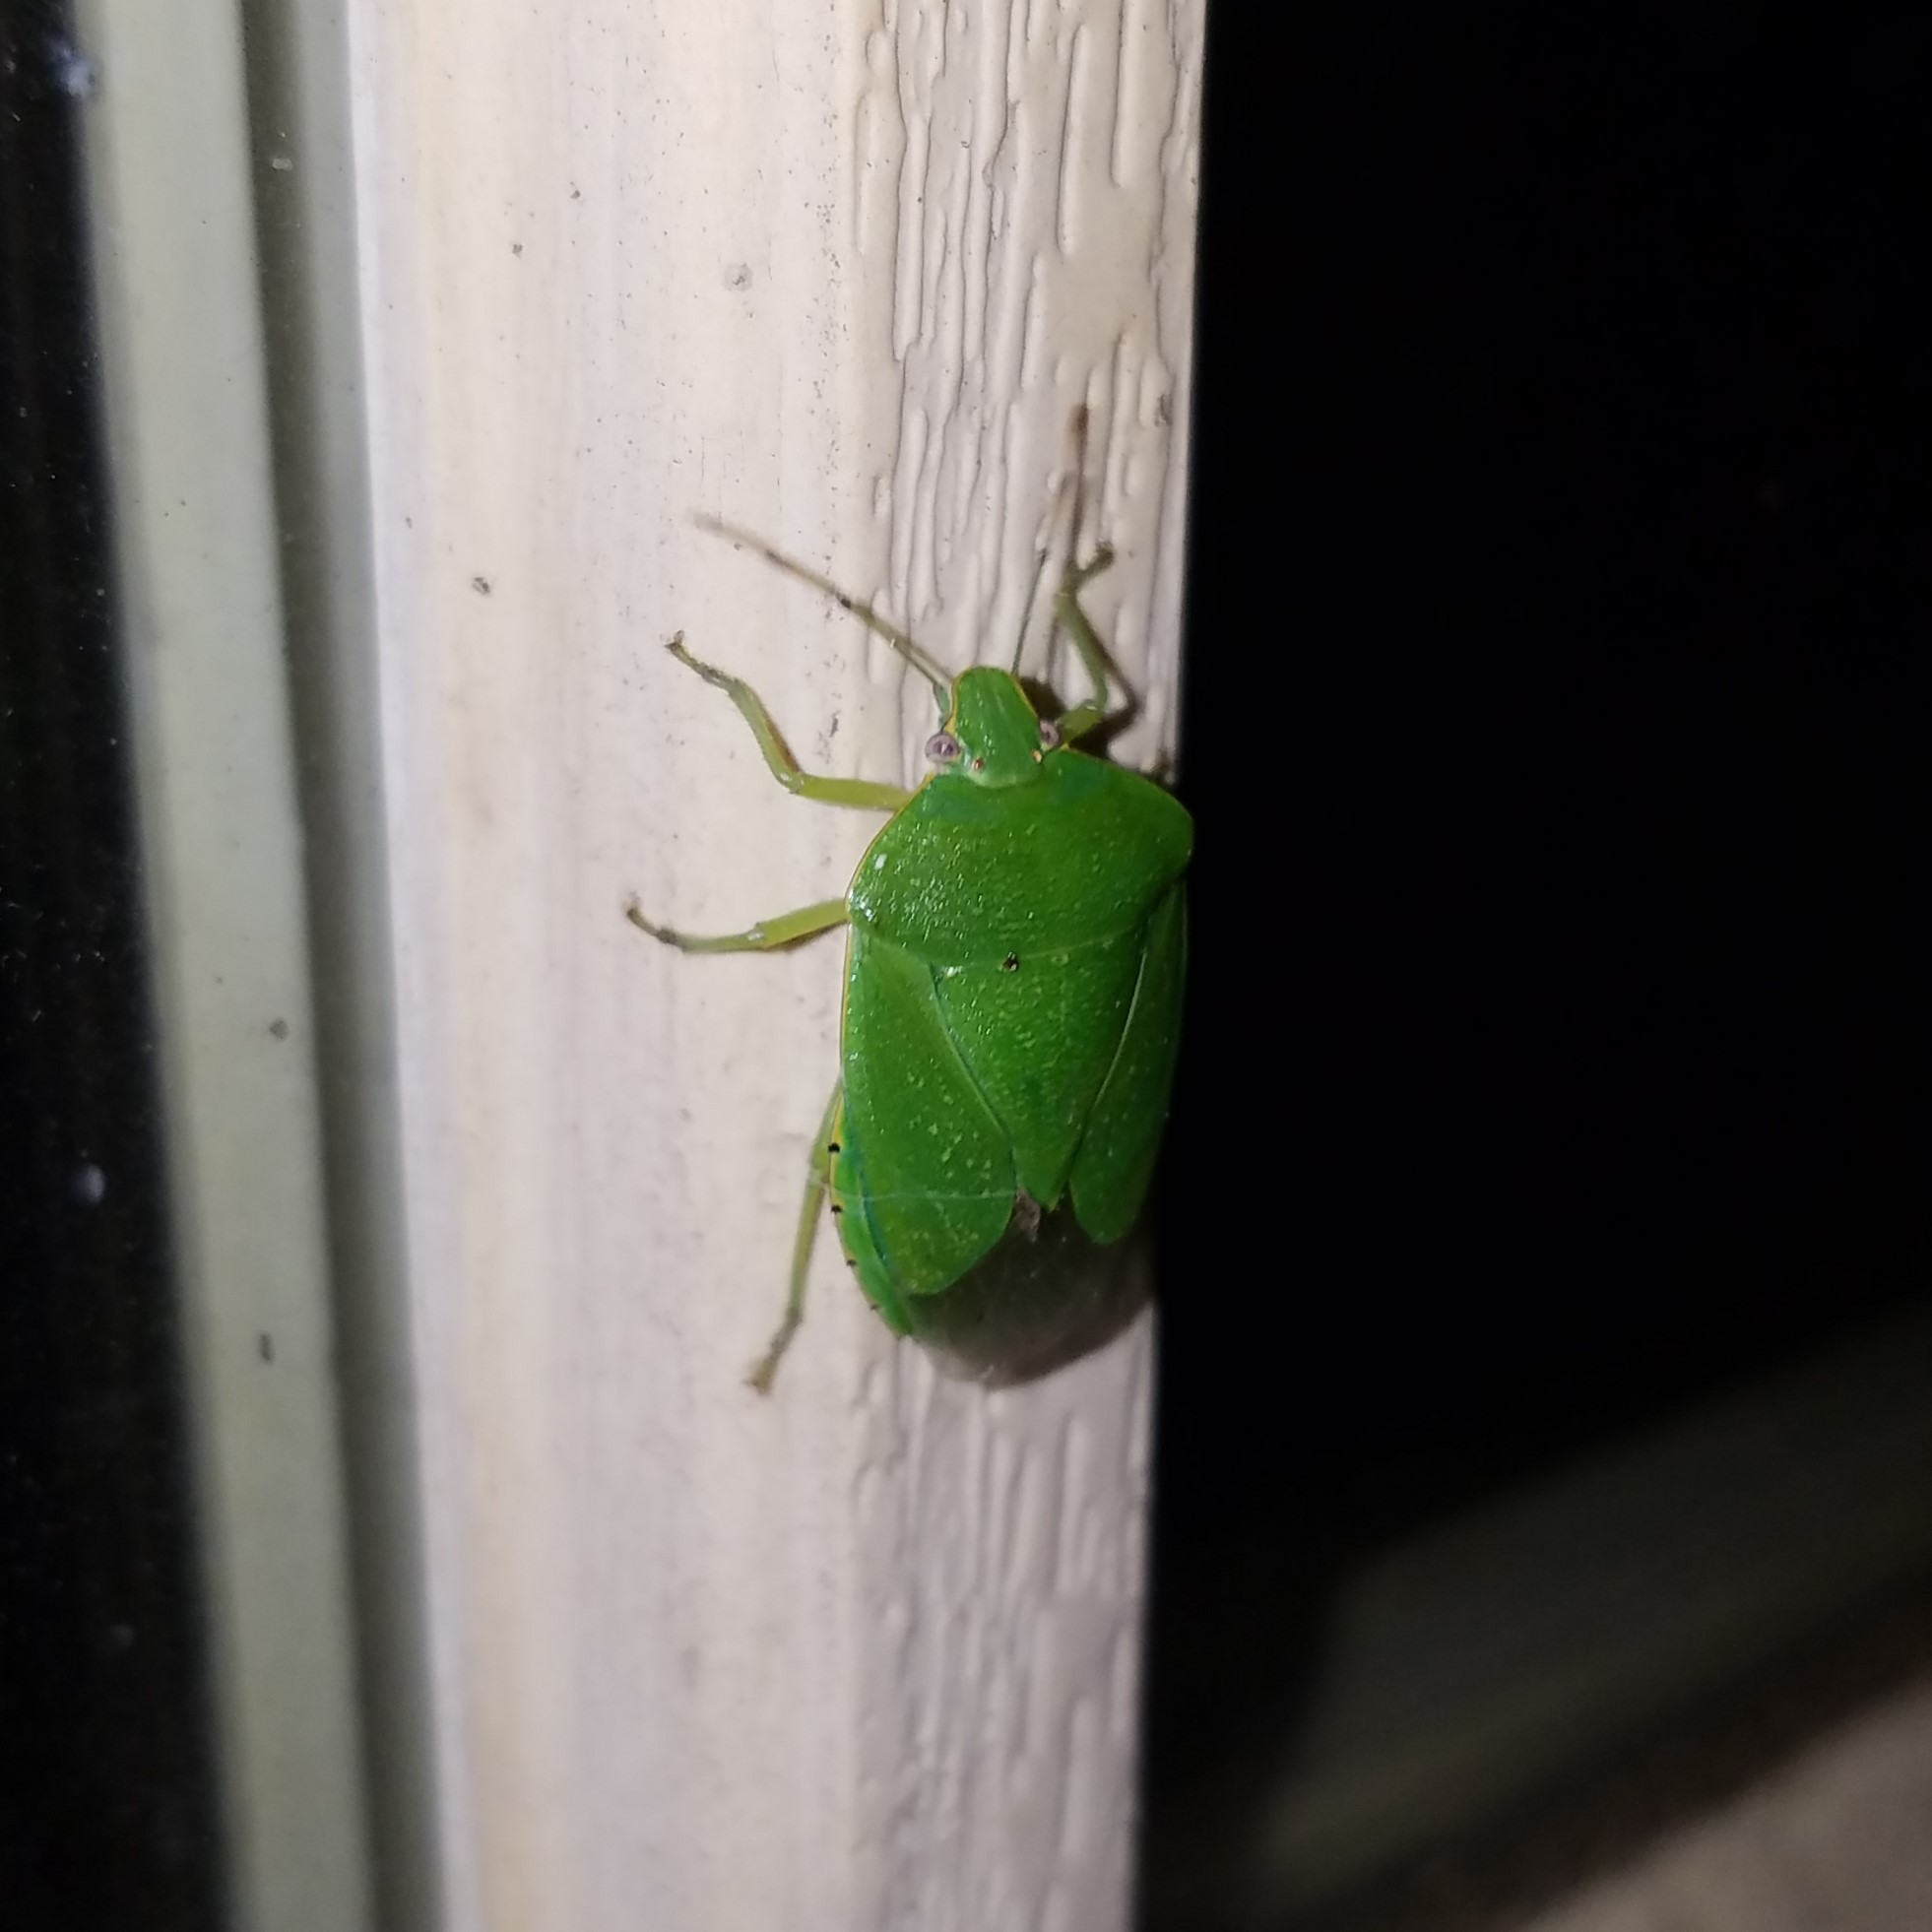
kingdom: Animalia
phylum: Arthropoda
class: Insecta
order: Hemiptera
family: Pentatomidae
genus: Chinavia
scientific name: Chinavia hilaris
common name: Green stink bug
